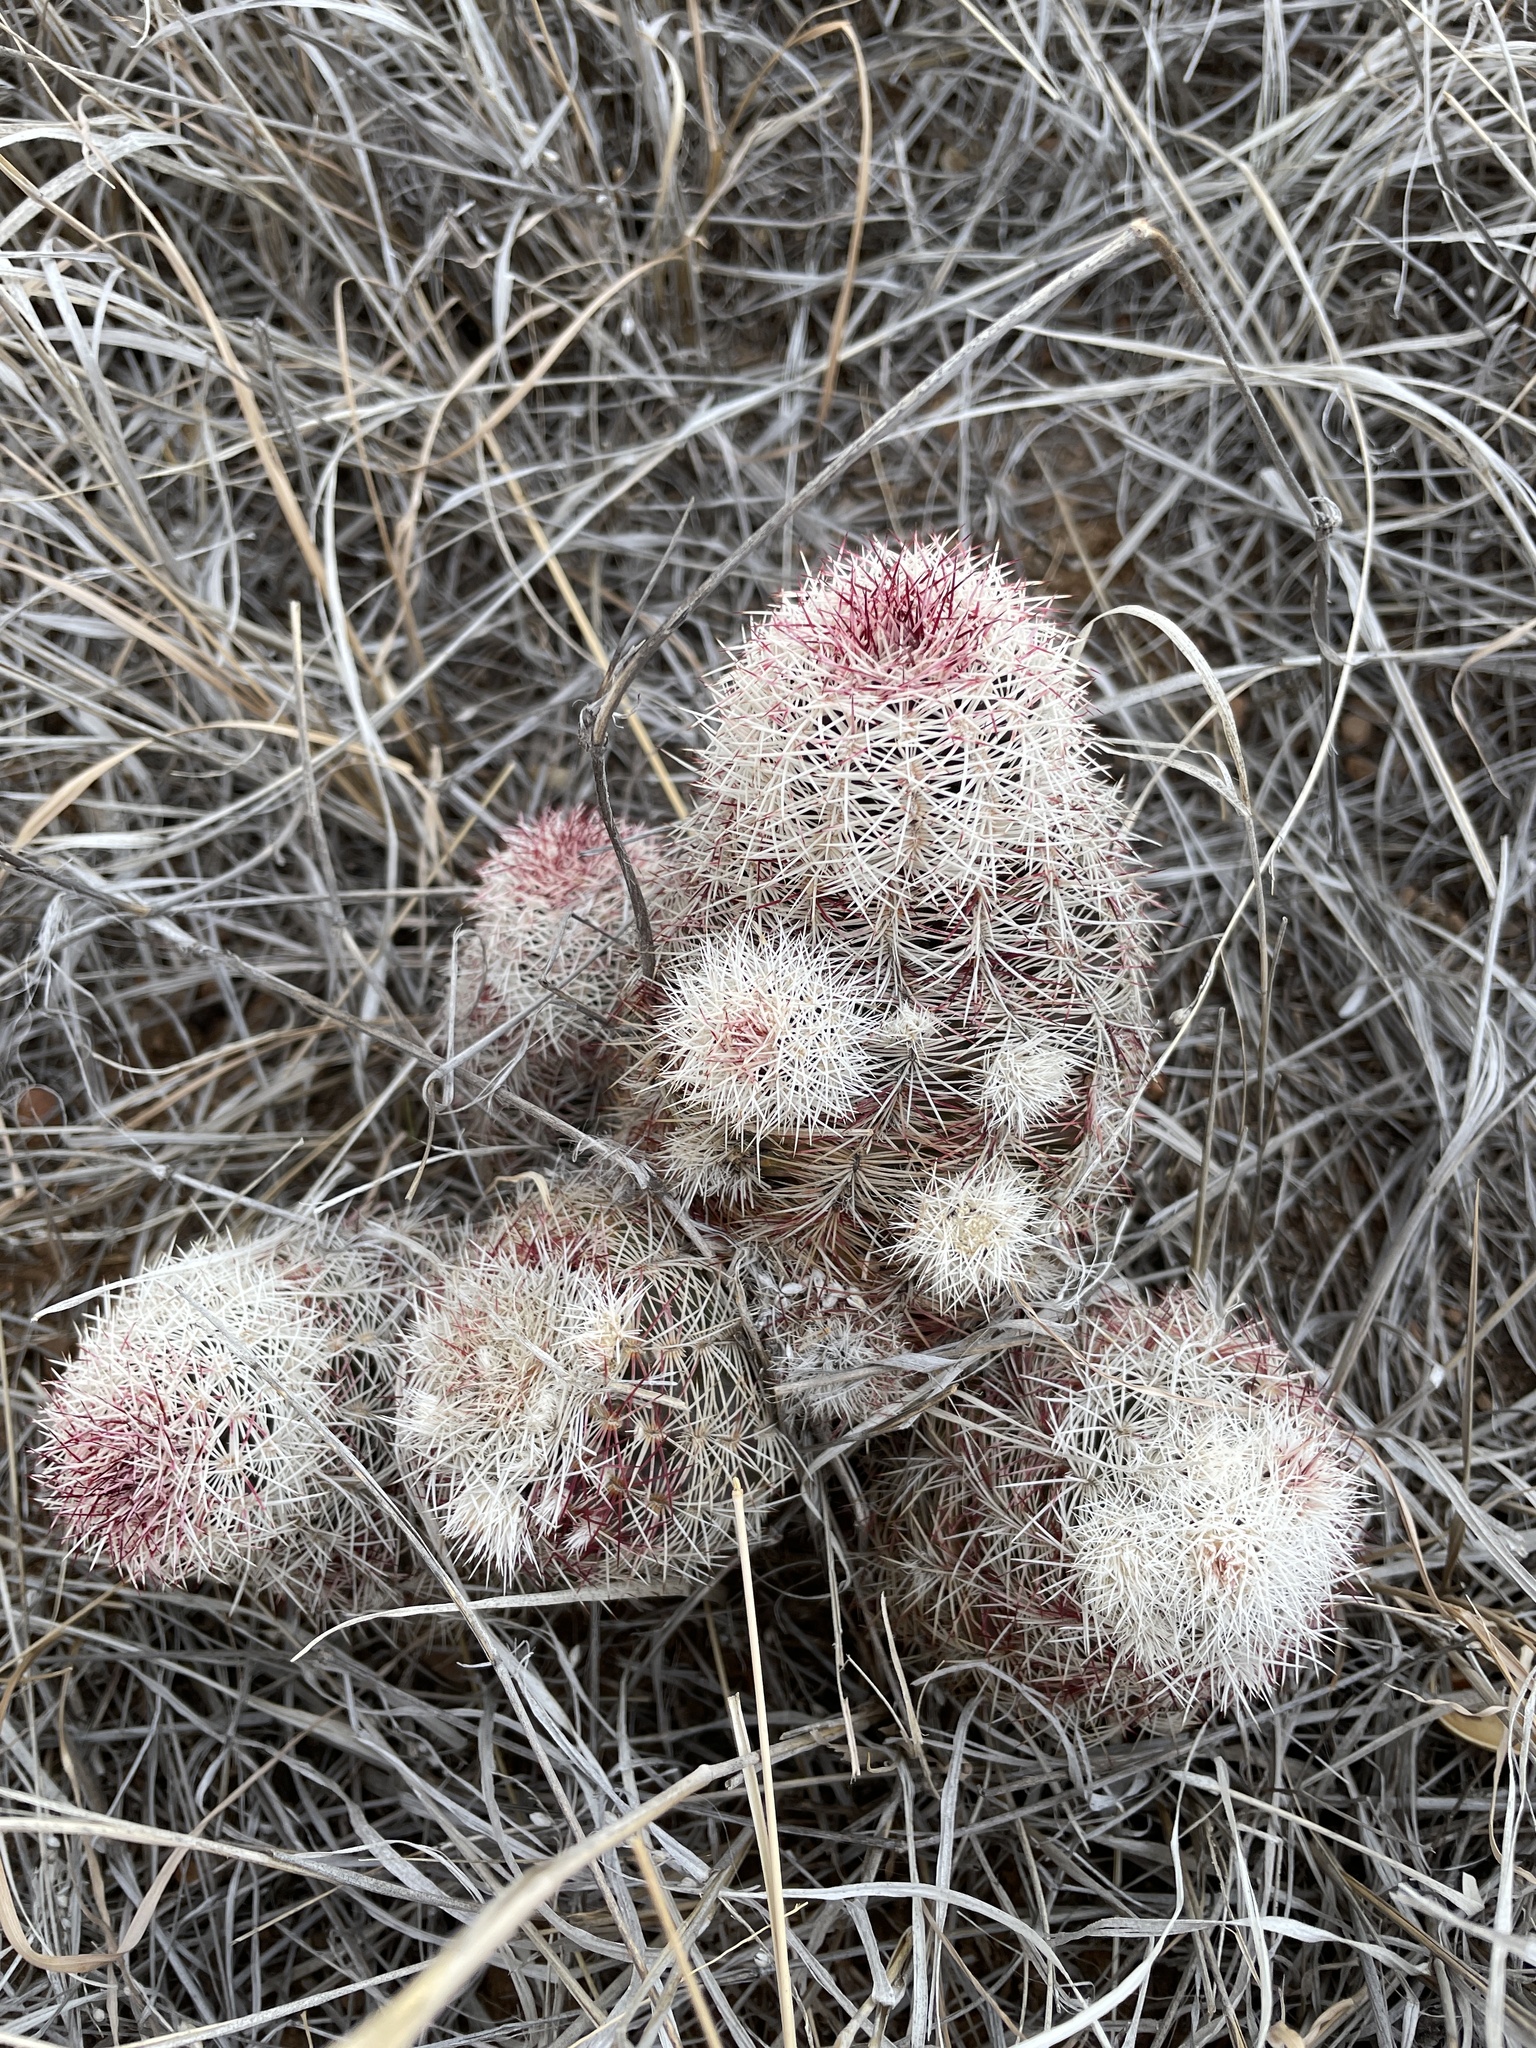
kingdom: Plantae
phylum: Tracheophyta
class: Magnoliopsida
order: Caryophyllales
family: Cactaceae
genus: Echinocereus
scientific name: Echinocereus viridiflorus
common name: Nylon hedgehog cactus
